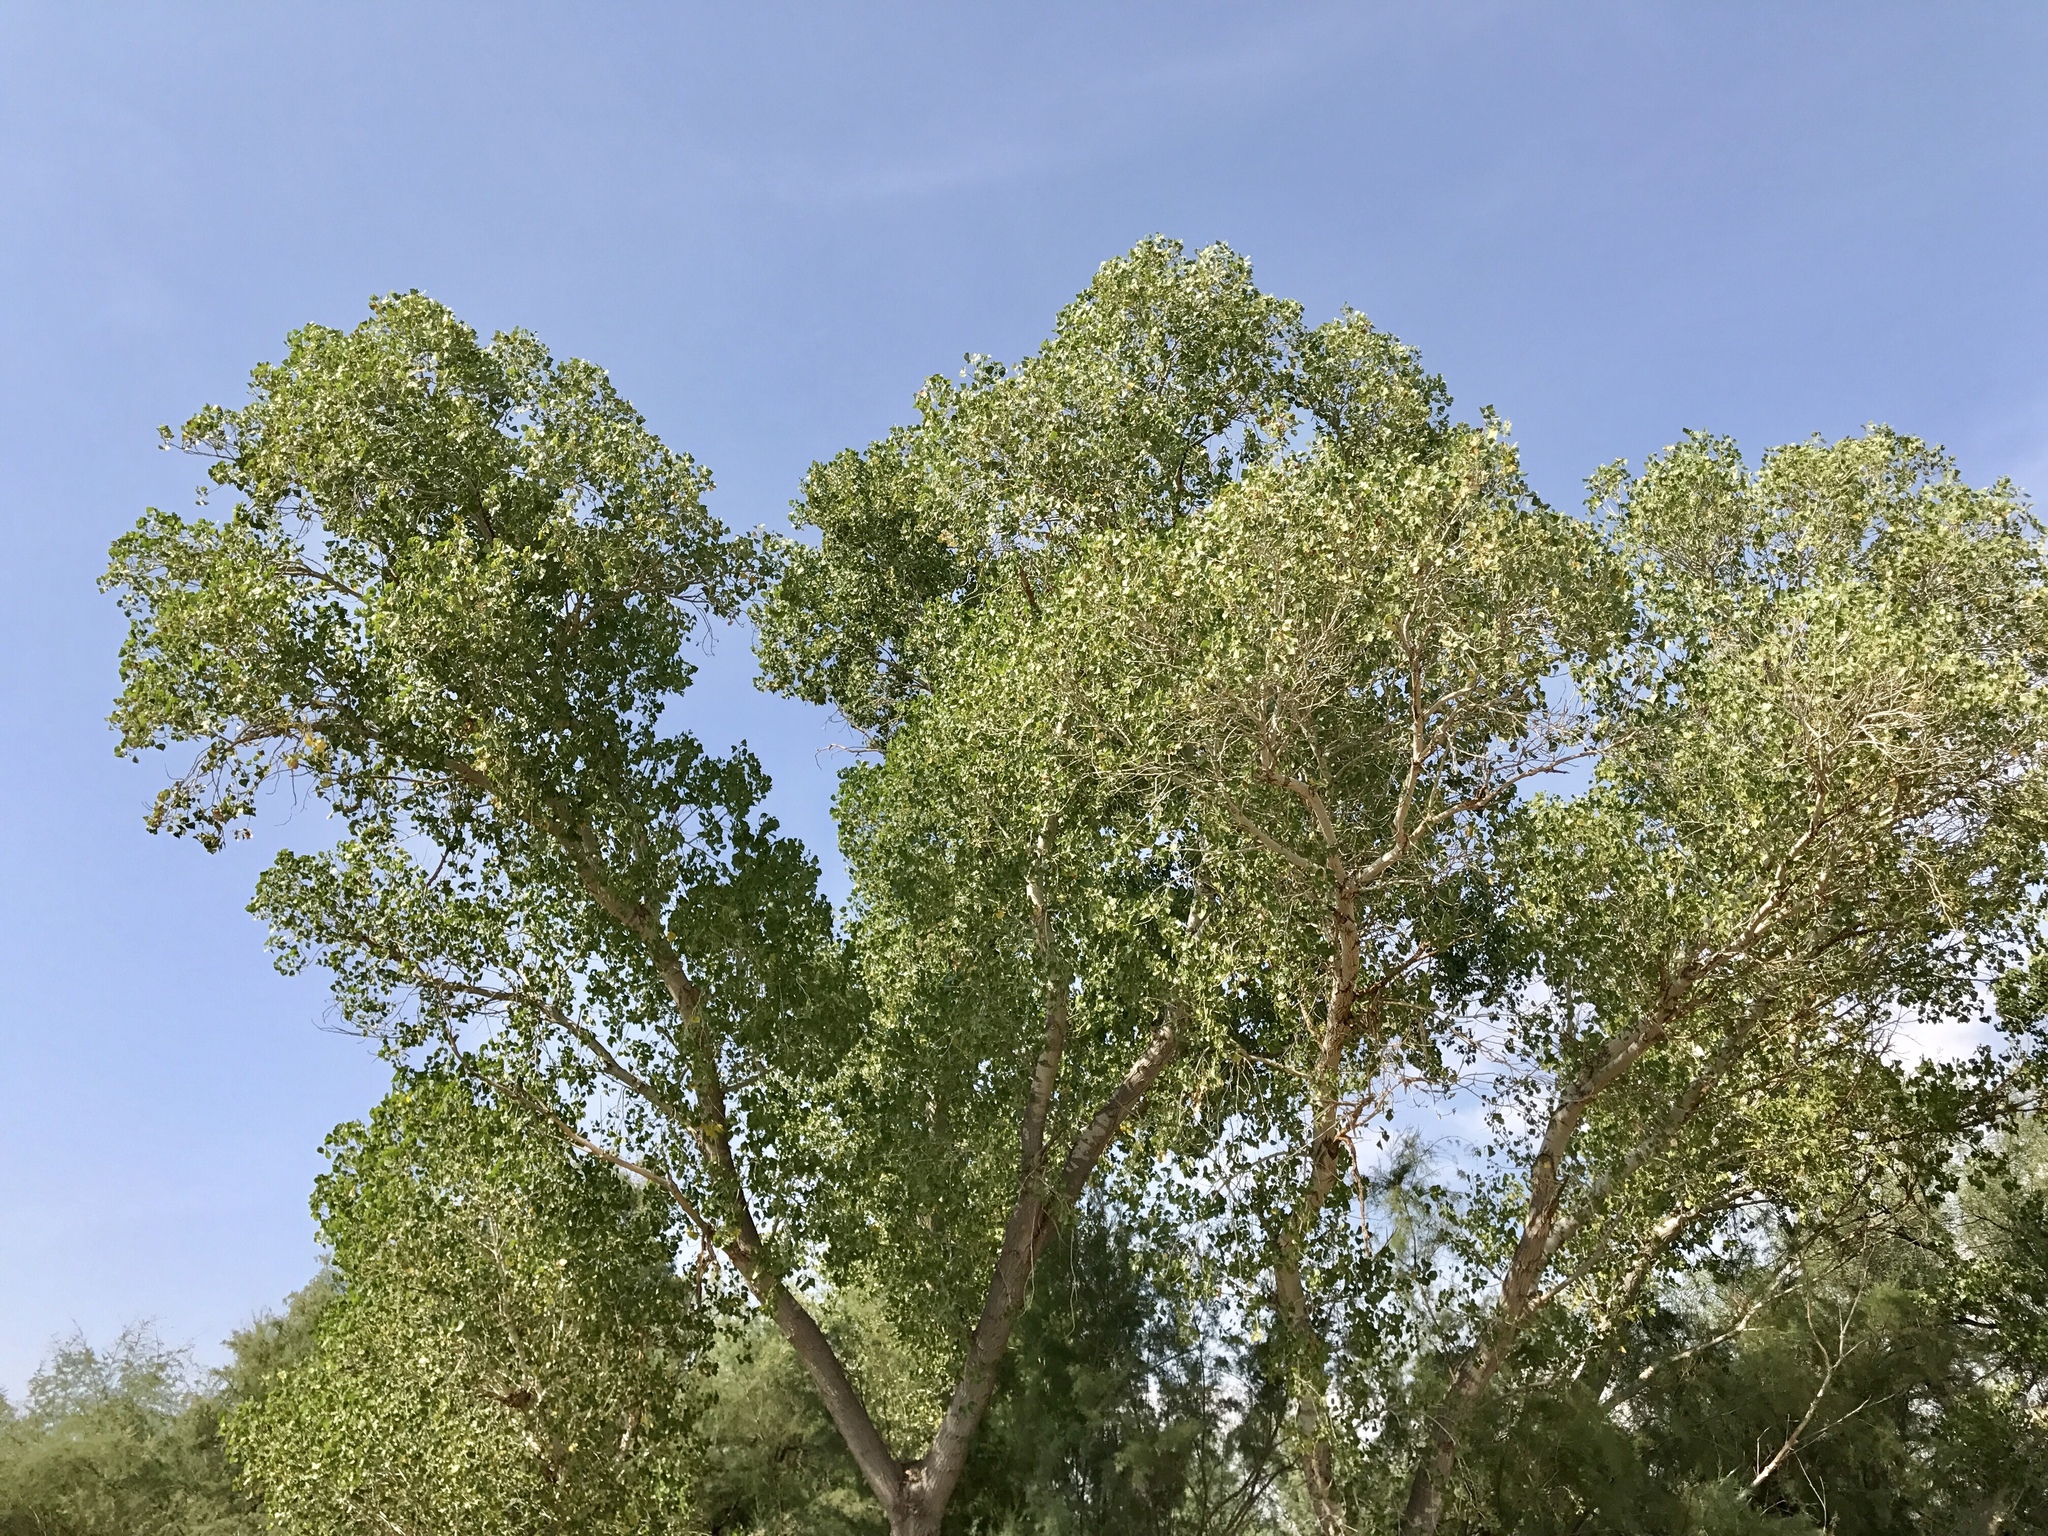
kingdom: Plantae
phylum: Tracheophyta
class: Magnoliopsida
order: Malpighiales
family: Salicaceae
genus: Populus
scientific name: Populus fremontii
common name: Fremont's cottonwood
